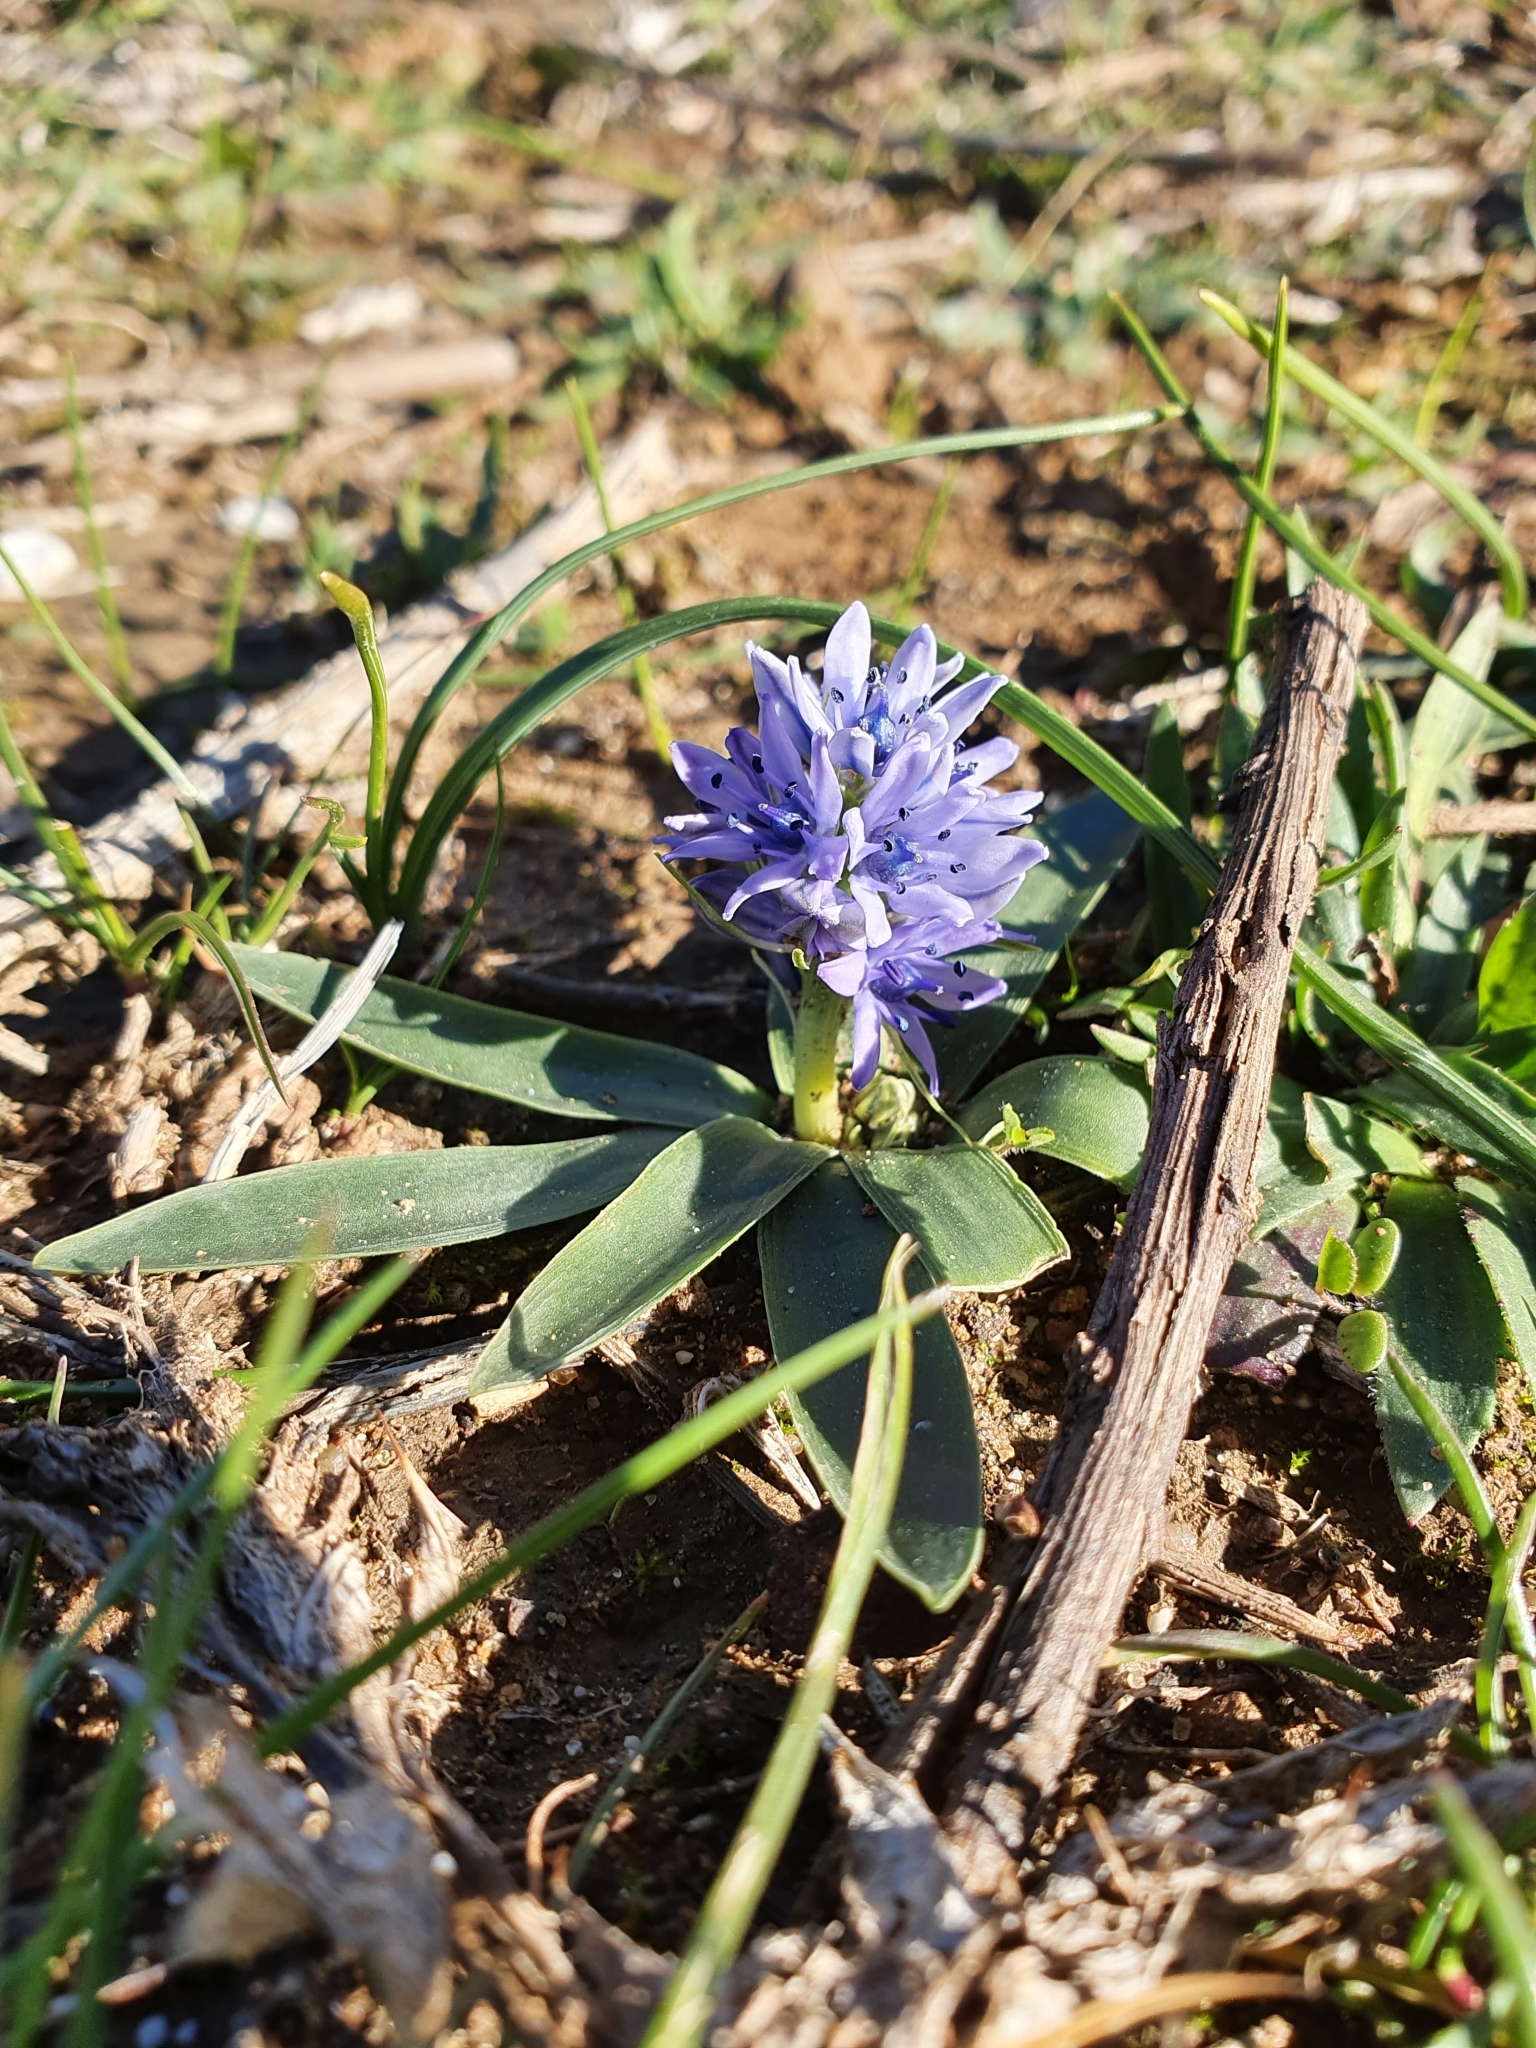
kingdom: Plantae
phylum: Tracheophyta
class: Liliopsida
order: Asparagales
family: Asparagaceae
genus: Hyacinthoides
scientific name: Hyacinthoides lingulata
